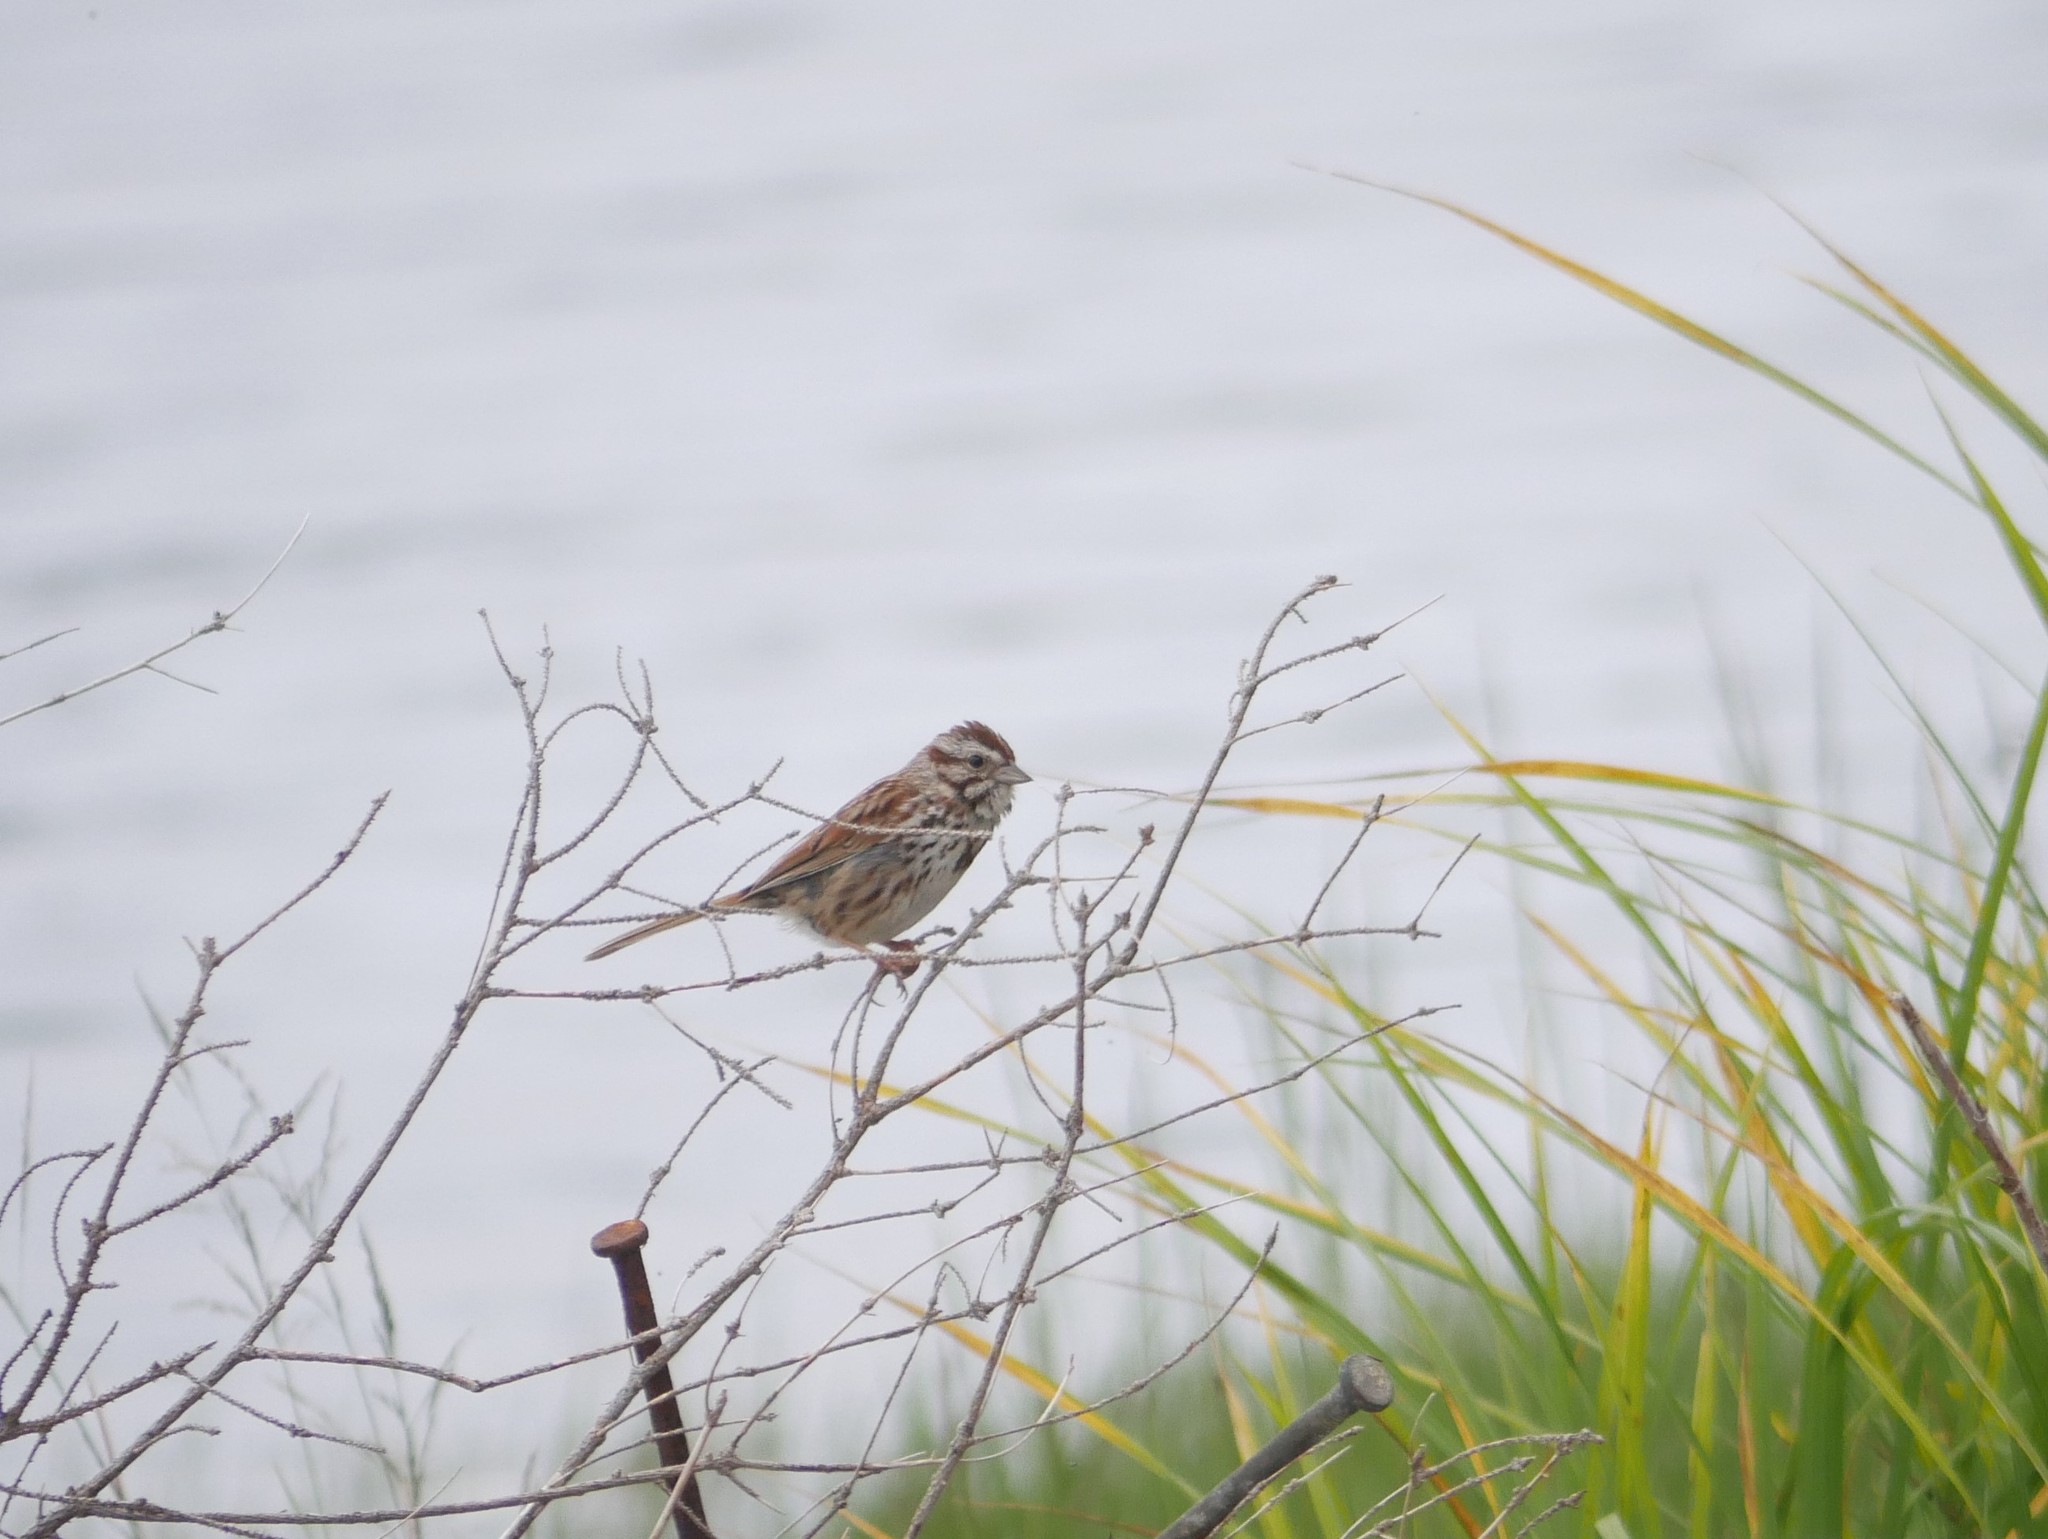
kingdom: Animalia
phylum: Chordata
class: Aves
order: Passeriformes
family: Passerellidae
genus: Melospiza
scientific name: Melospiza melodia
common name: Song sparrow
